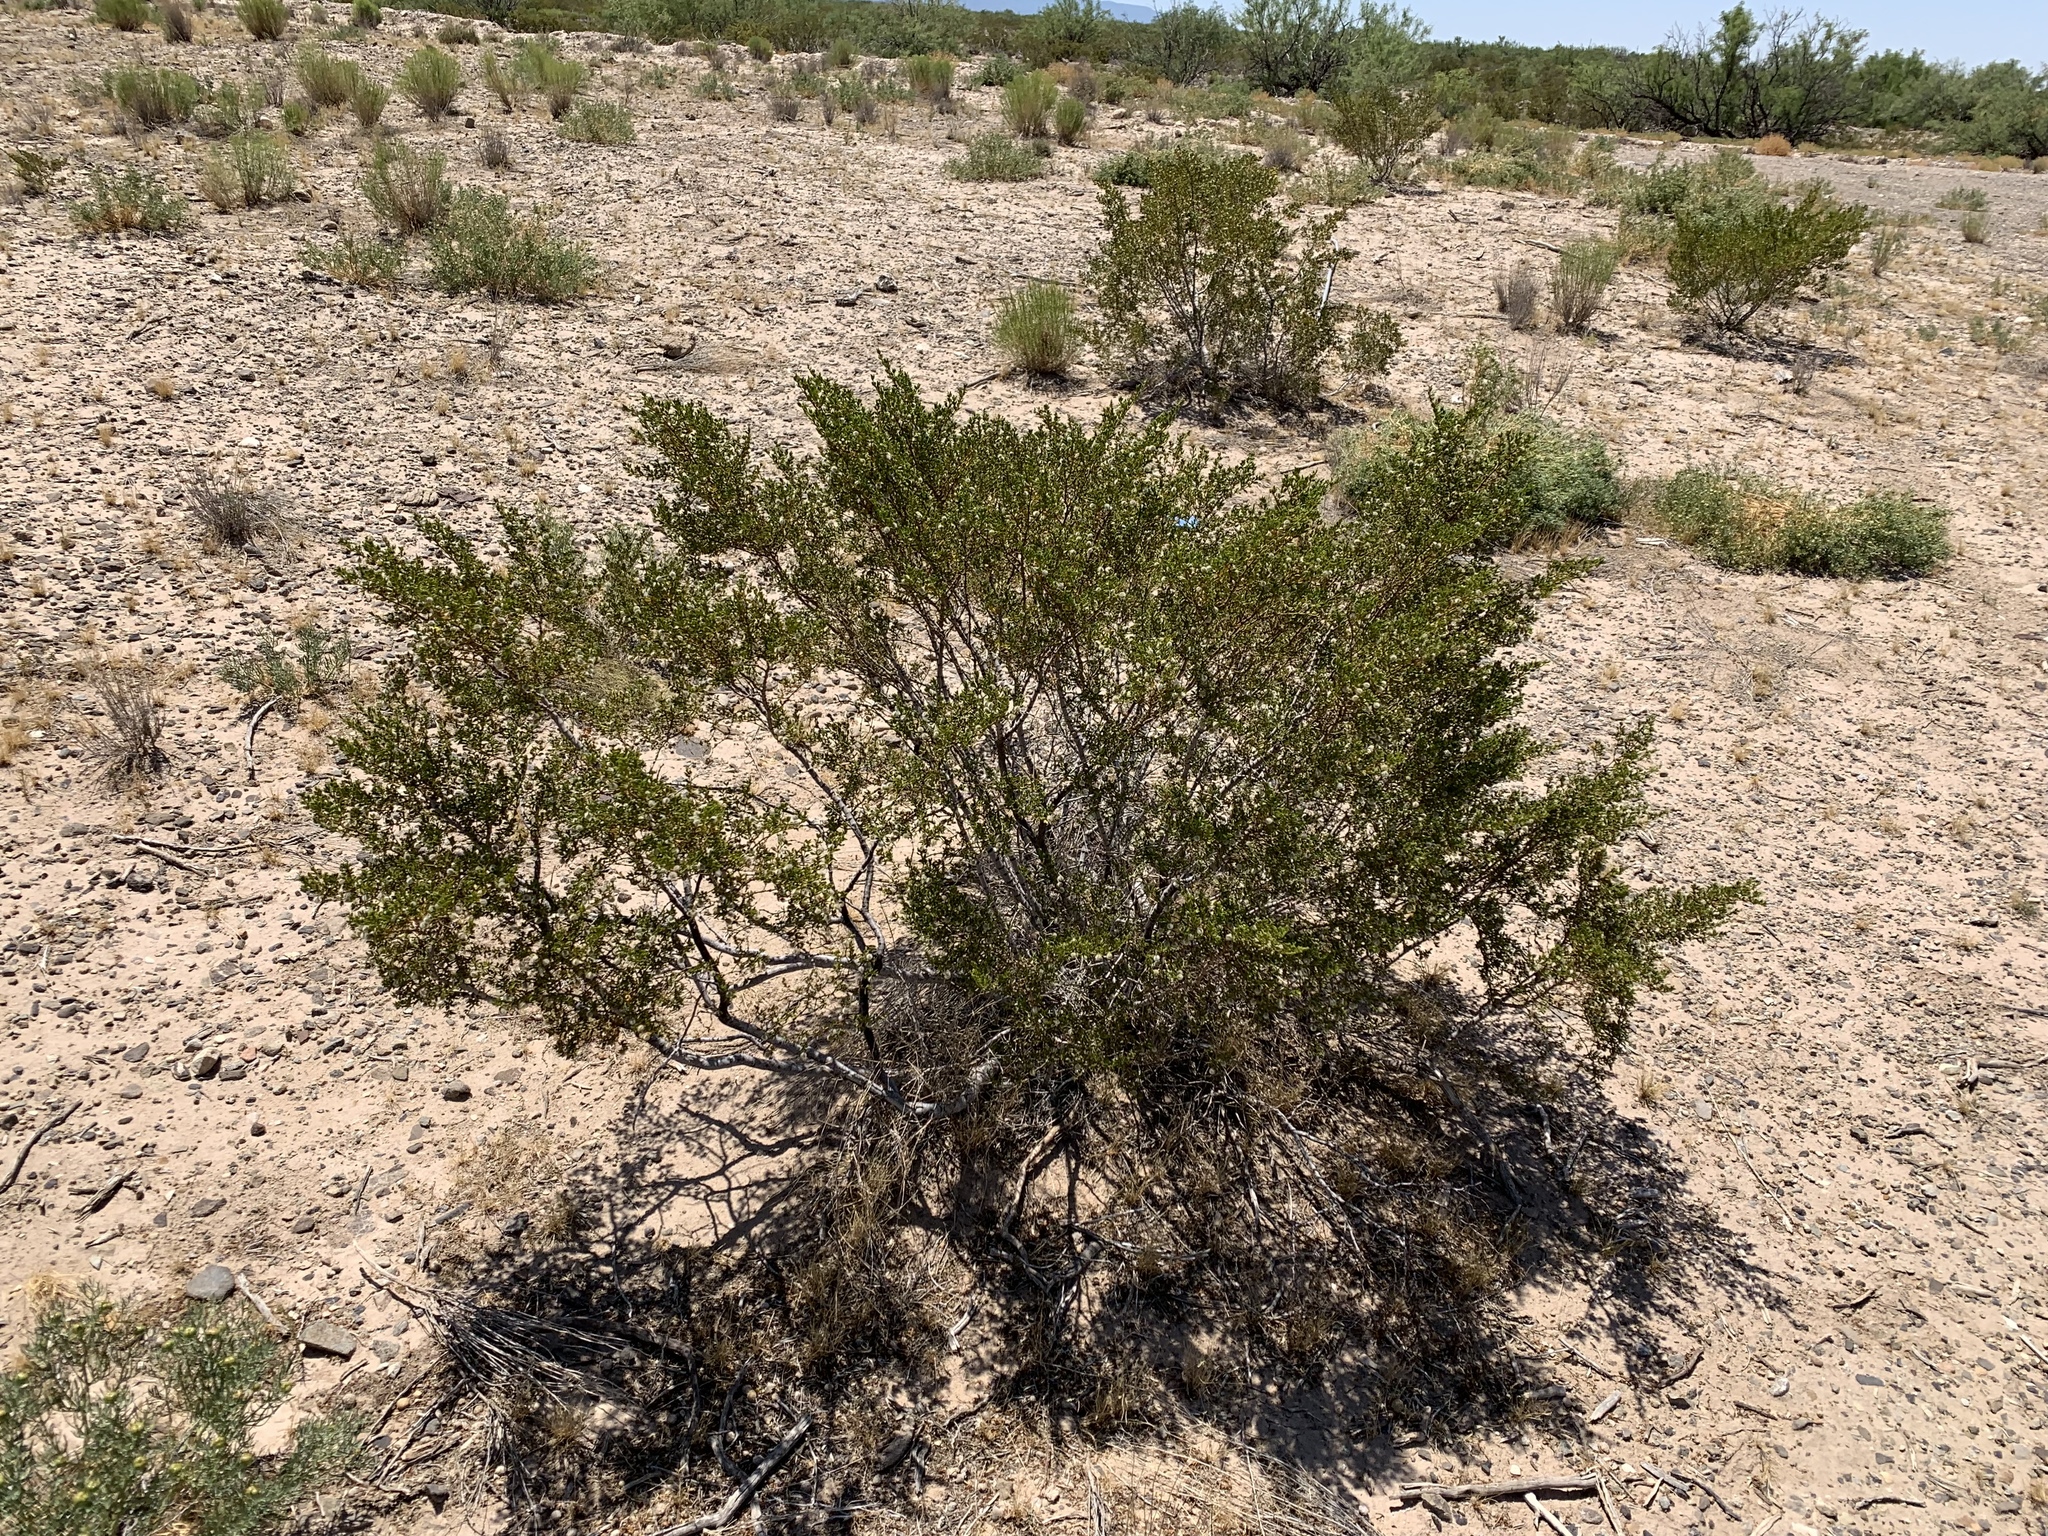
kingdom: Plantae
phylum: Tracheophyta
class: Magnoliopsida
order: Zygophyllales
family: Zygophyllaceae
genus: Larrea
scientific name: Larrea tridentata
